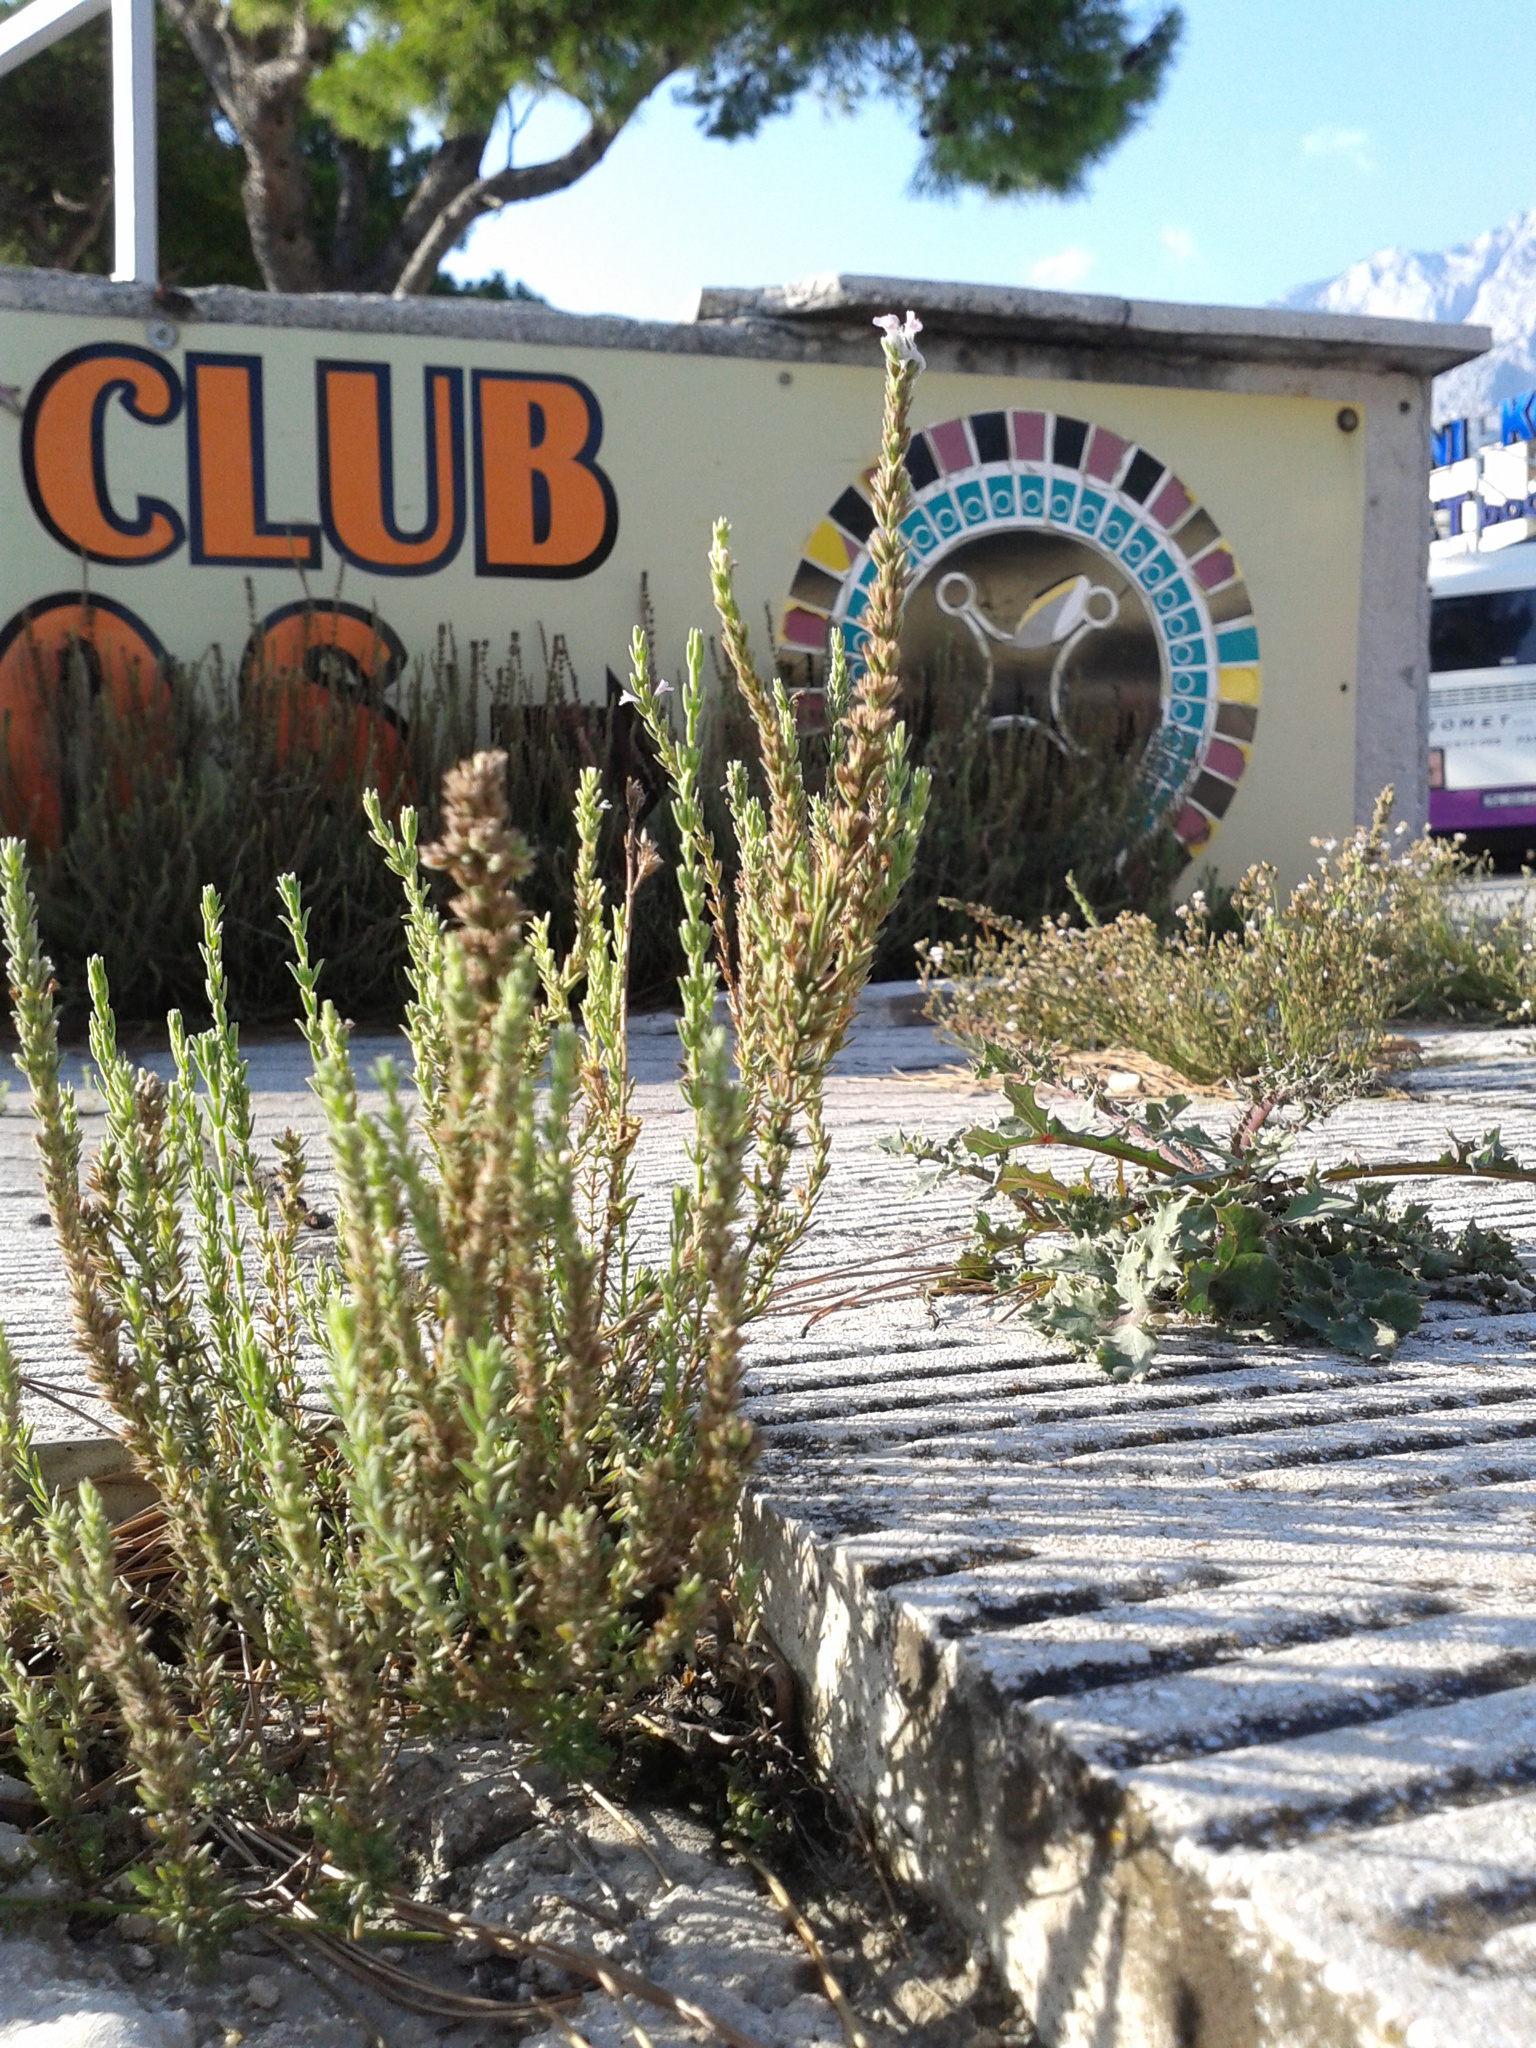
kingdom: Plantae
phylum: Tracheophyta
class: Magnoliopsida
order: Lamiales
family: Lamiaceae
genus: Micromeria
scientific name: Micromeria juliana
